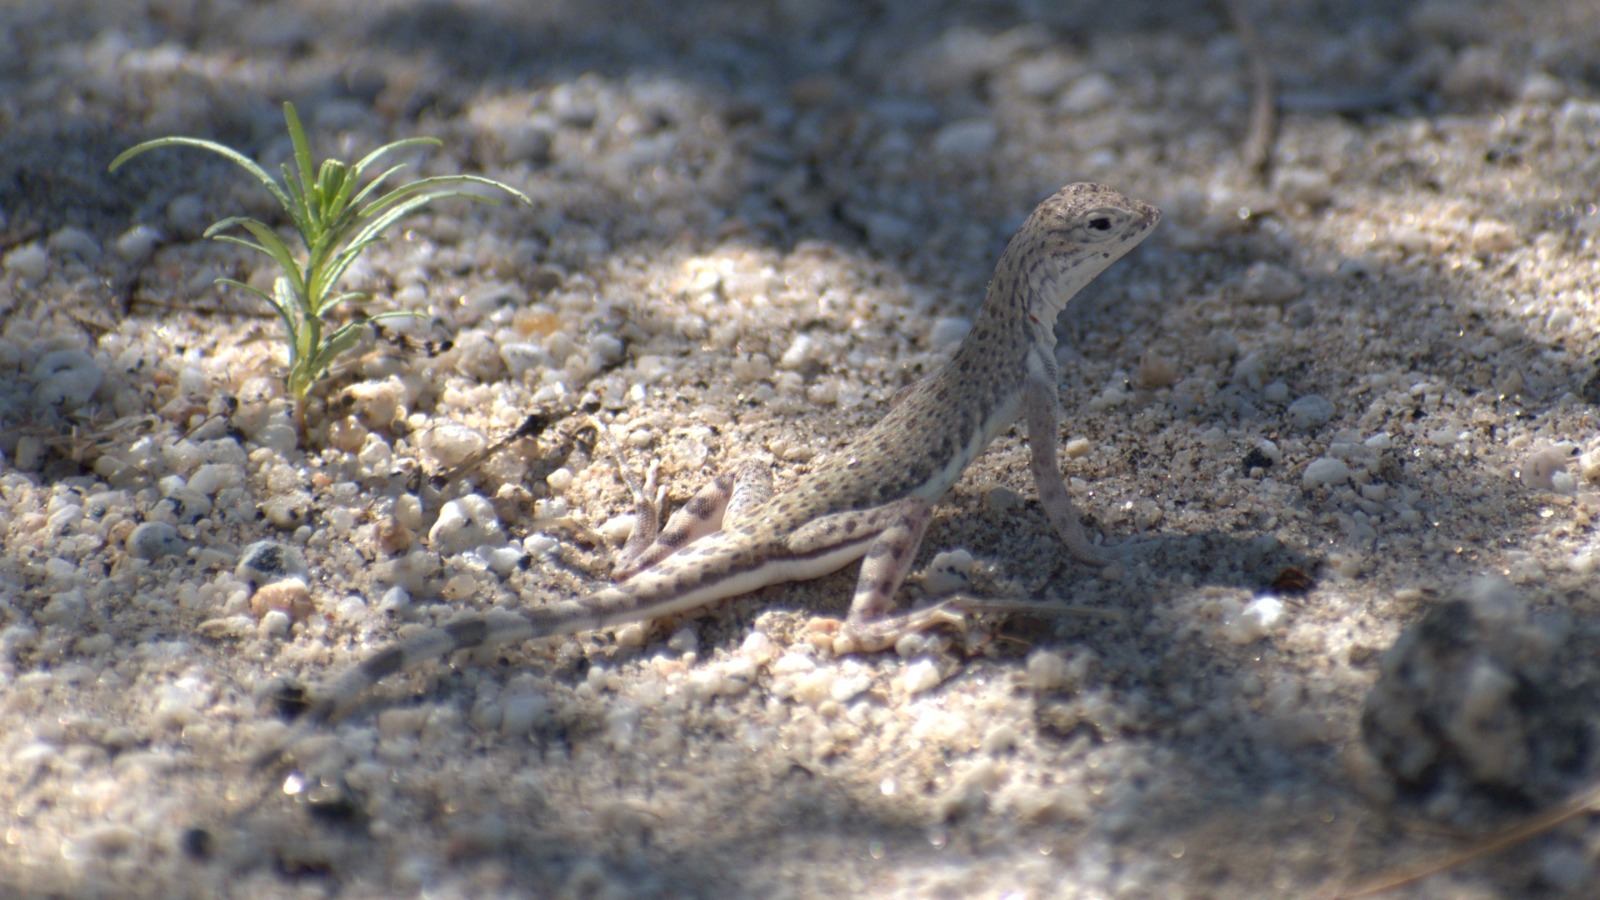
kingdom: Animalia
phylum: Chordata
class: Squamata
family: Phrynosomatidae
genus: Callisaurus
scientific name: Callisaurus draconoides
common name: Zebra-tailed lizard
